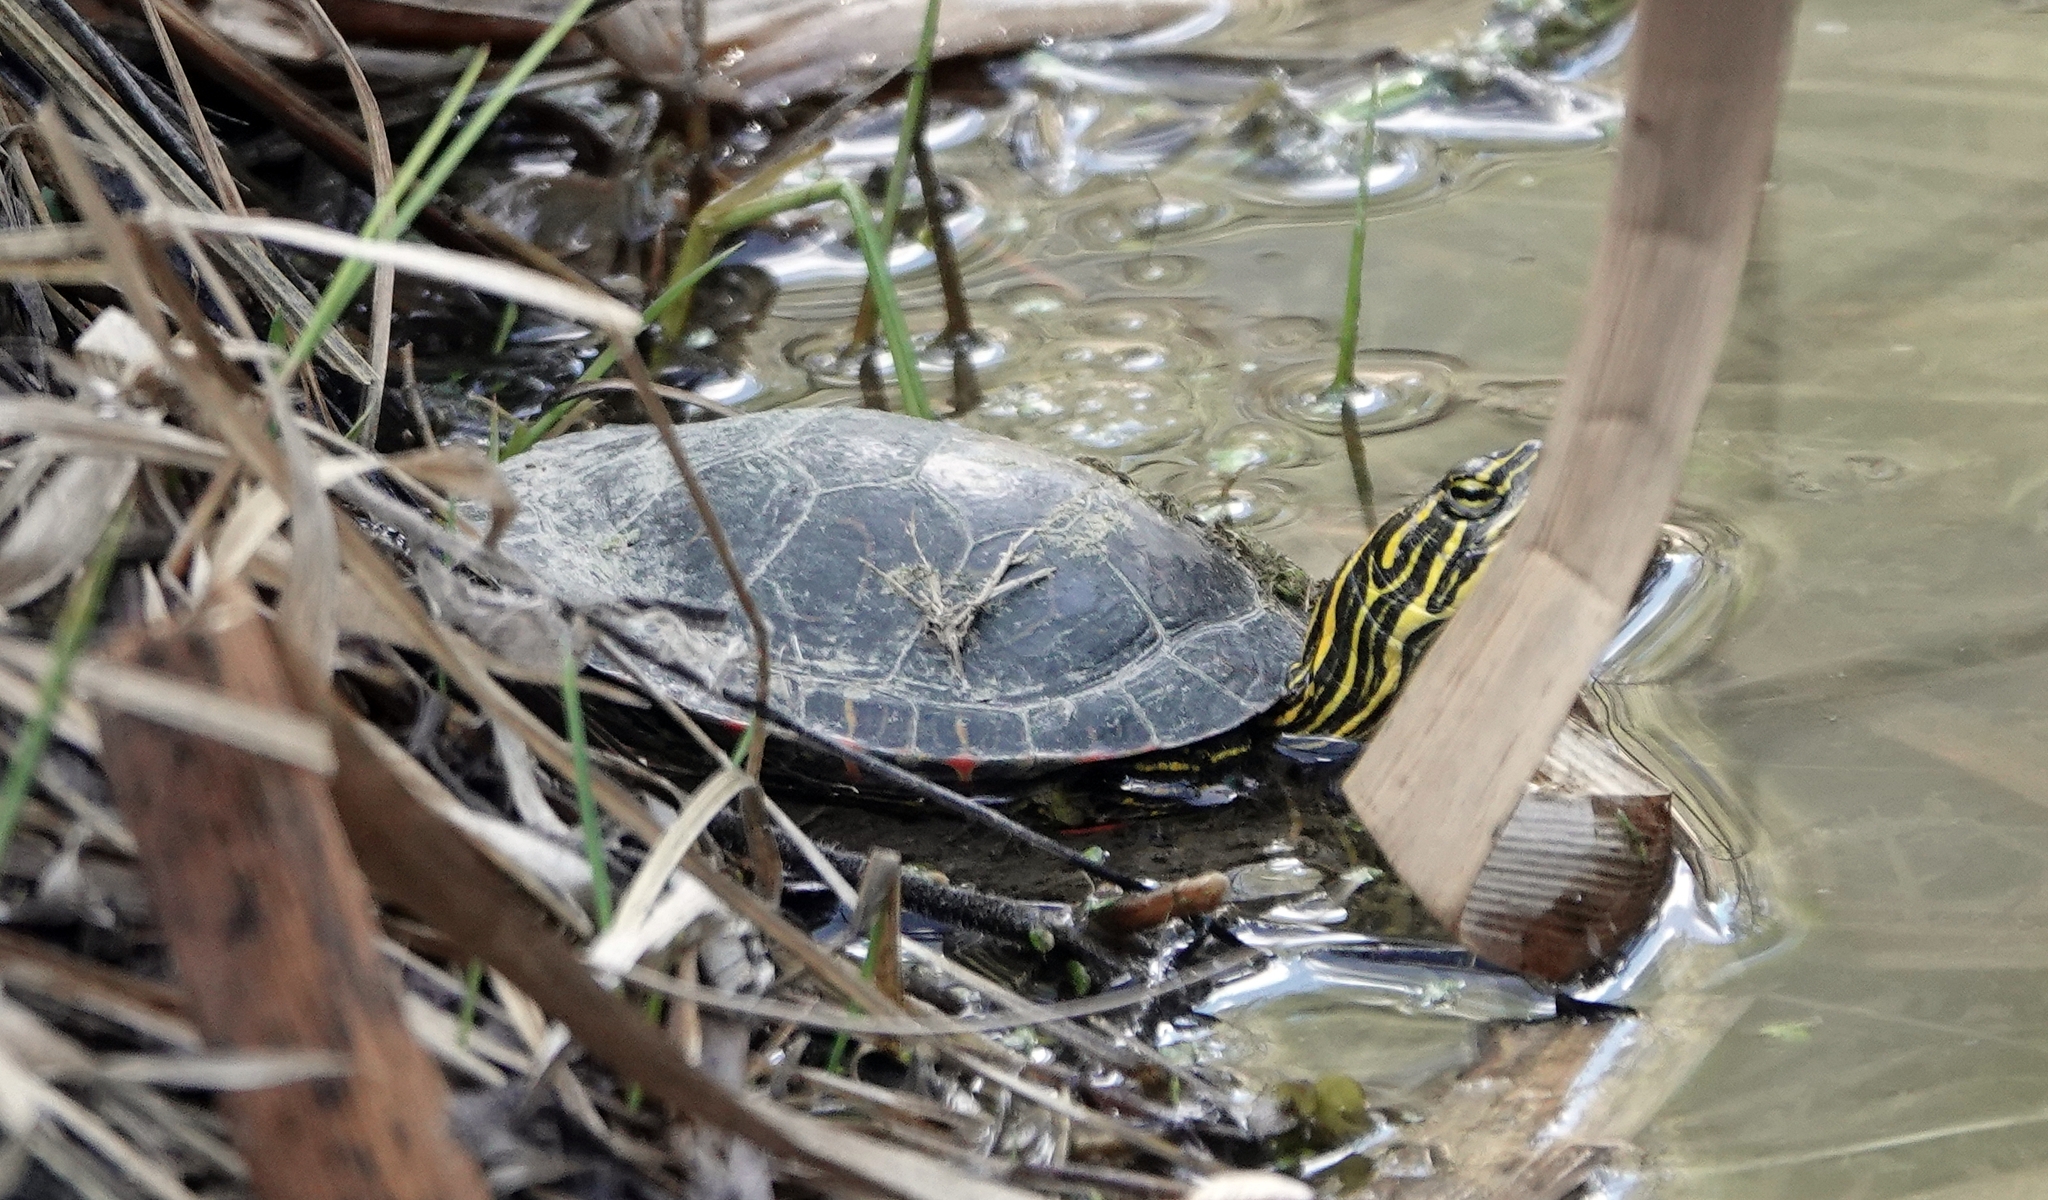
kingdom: Animalia
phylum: Chordata
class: Testudines
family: Emydidae
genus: Chrysemys
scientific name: Chrysemys picta
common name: Painted turtle
